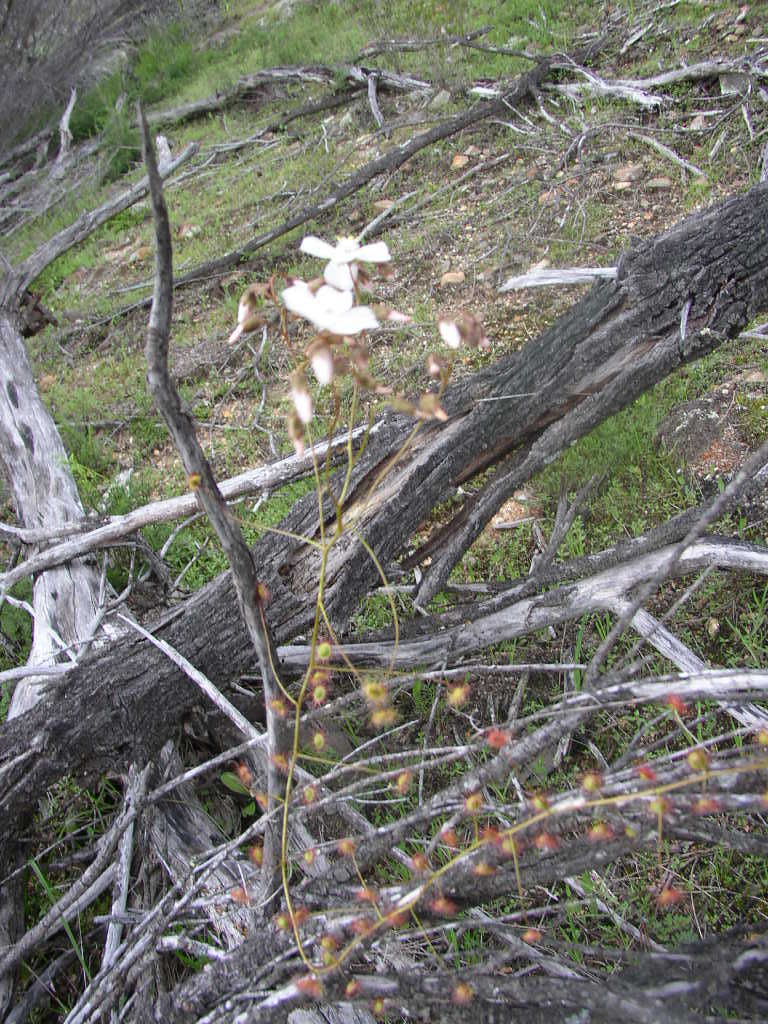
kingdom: Plantae
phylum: Tracheophyta
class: Magnoliopsida
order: Caryophyllales
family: Droseraceae
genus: Drosera
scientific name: Drosera macrantha
